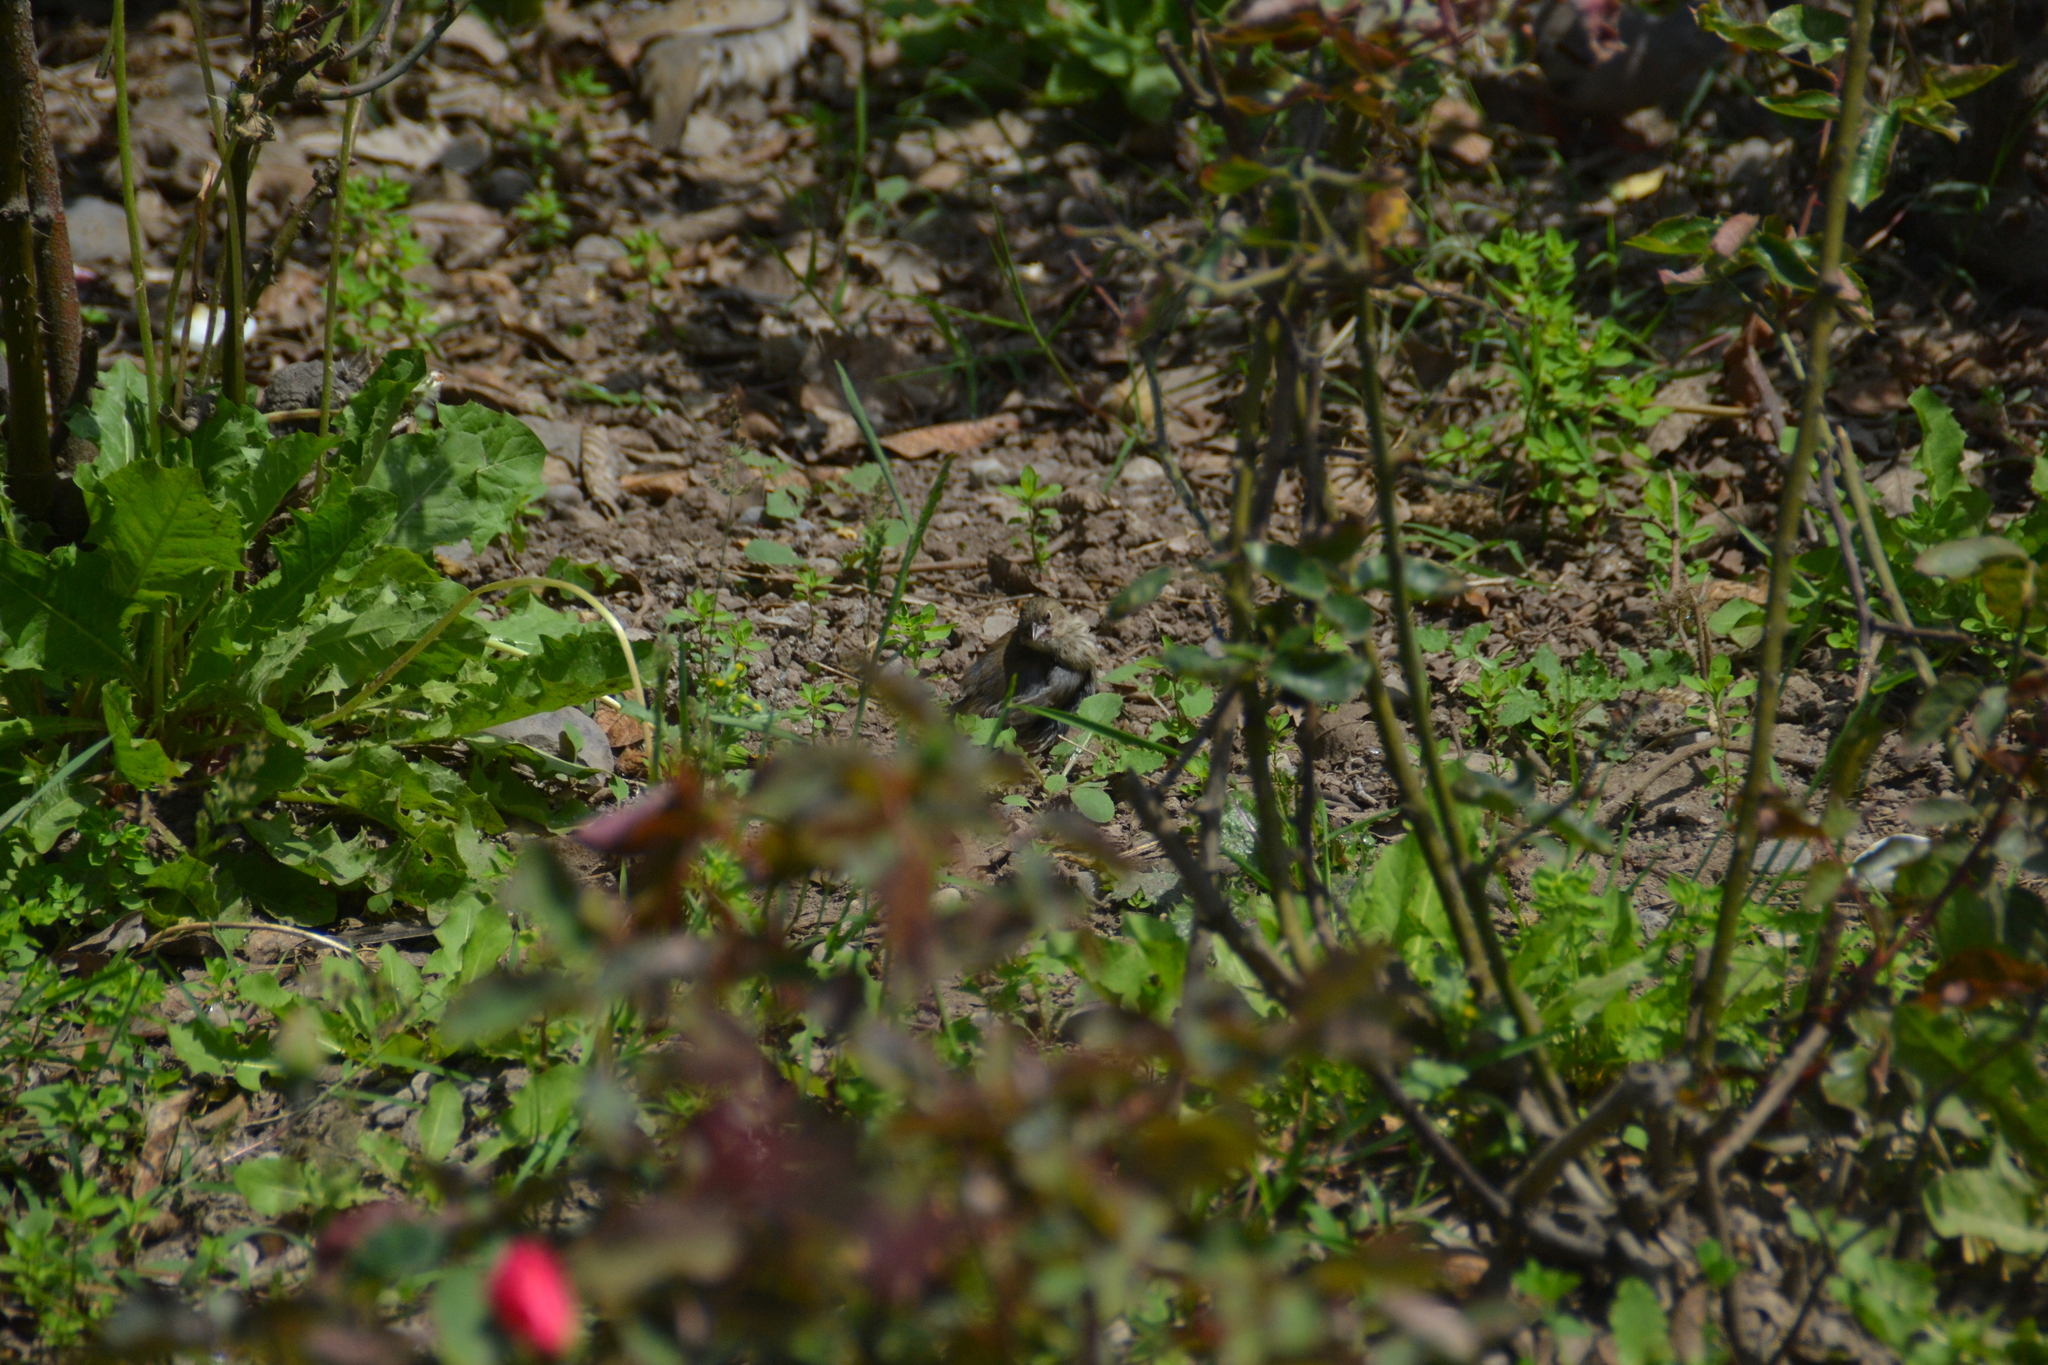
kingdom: Animalia
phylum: Chordata
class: Aves
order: Passeriformes
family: Thraupidae
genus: Volatinia
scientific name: Volatinia jacarina
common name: Blue-black grassquit
